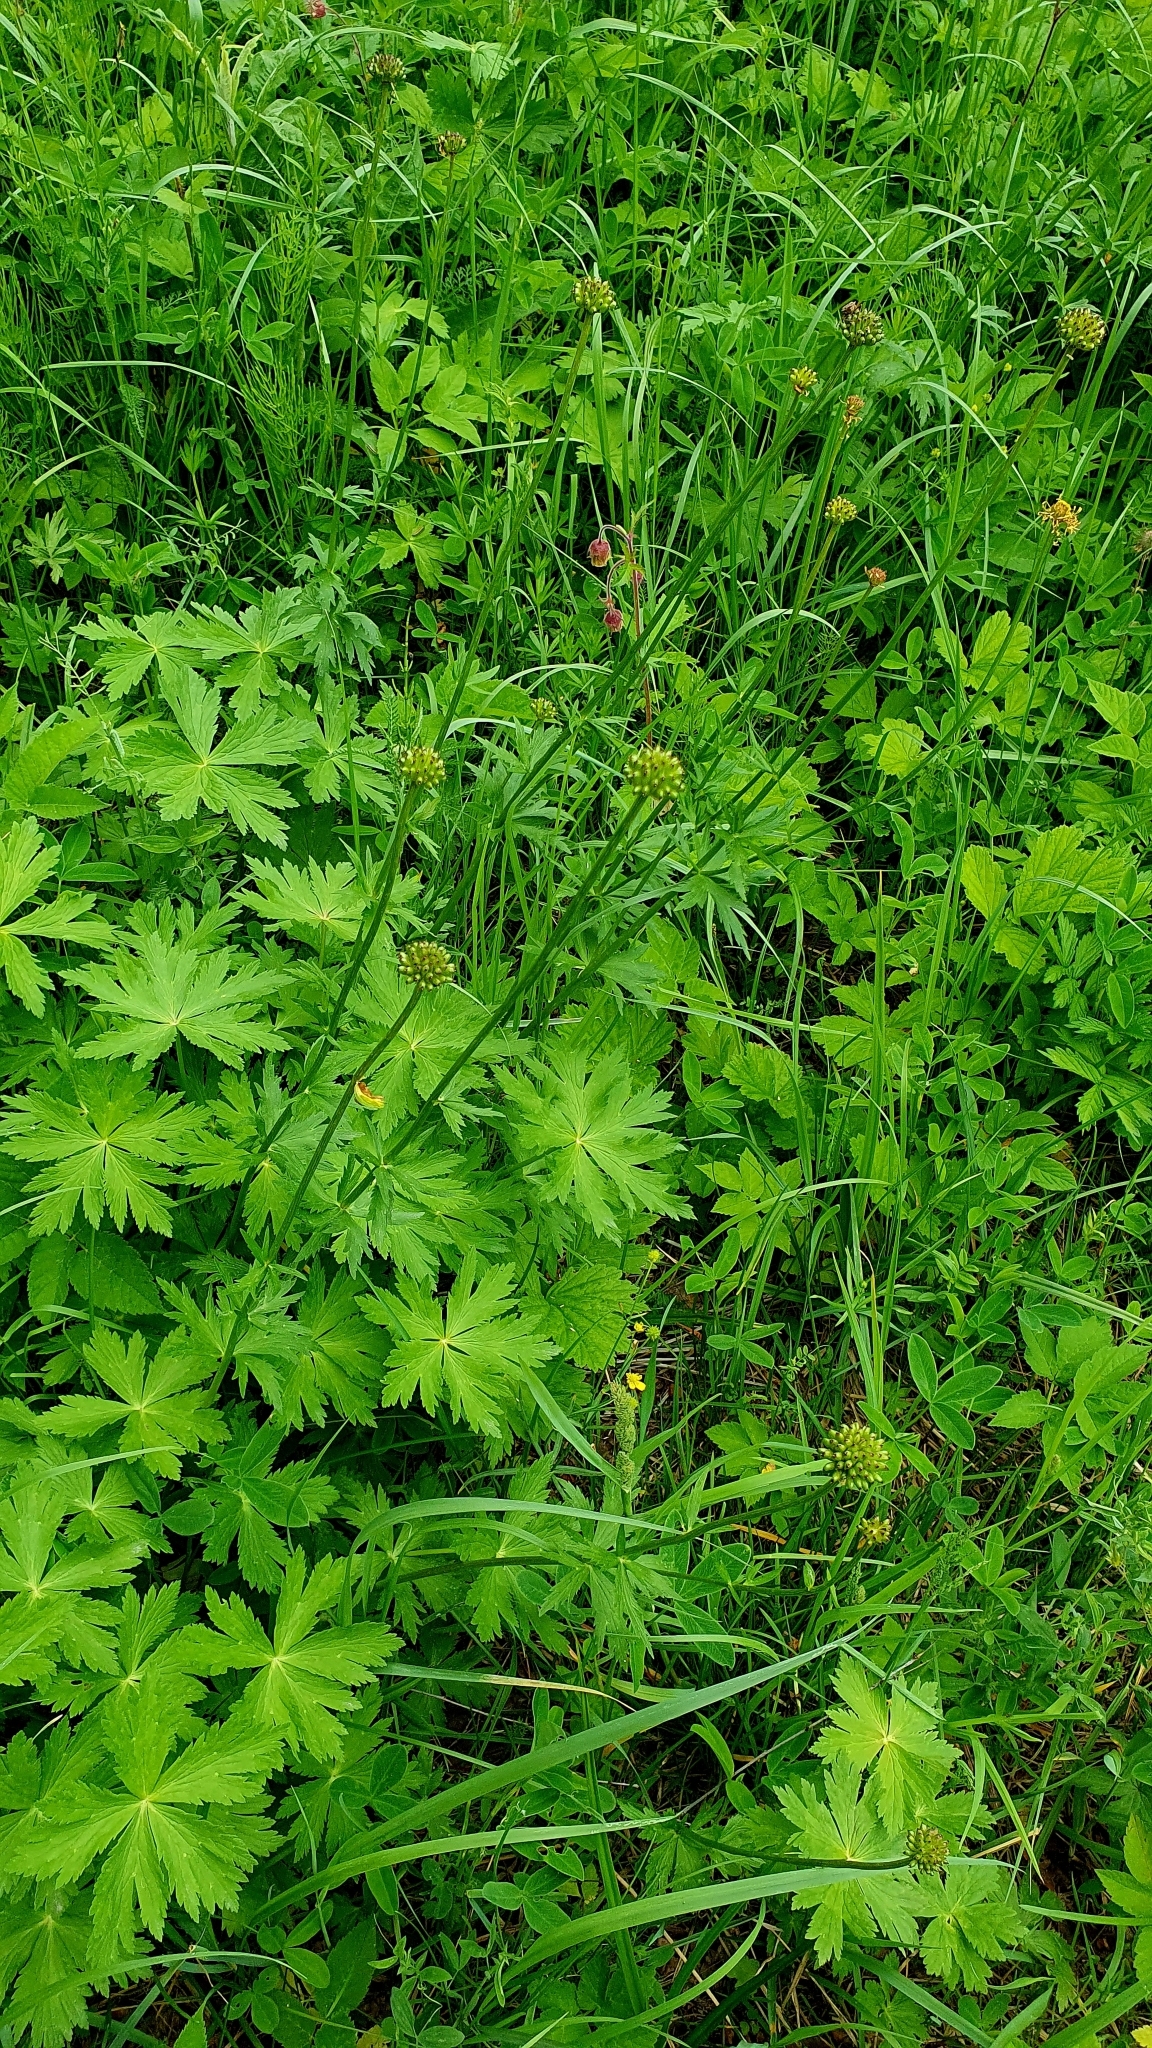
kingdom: Plantae
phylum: Tracheophyta
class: Magnoliopsida
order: Ranunculales
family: Ranunculaceae
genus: Trollius
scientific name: Trollius europaeus
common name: European globeflower
